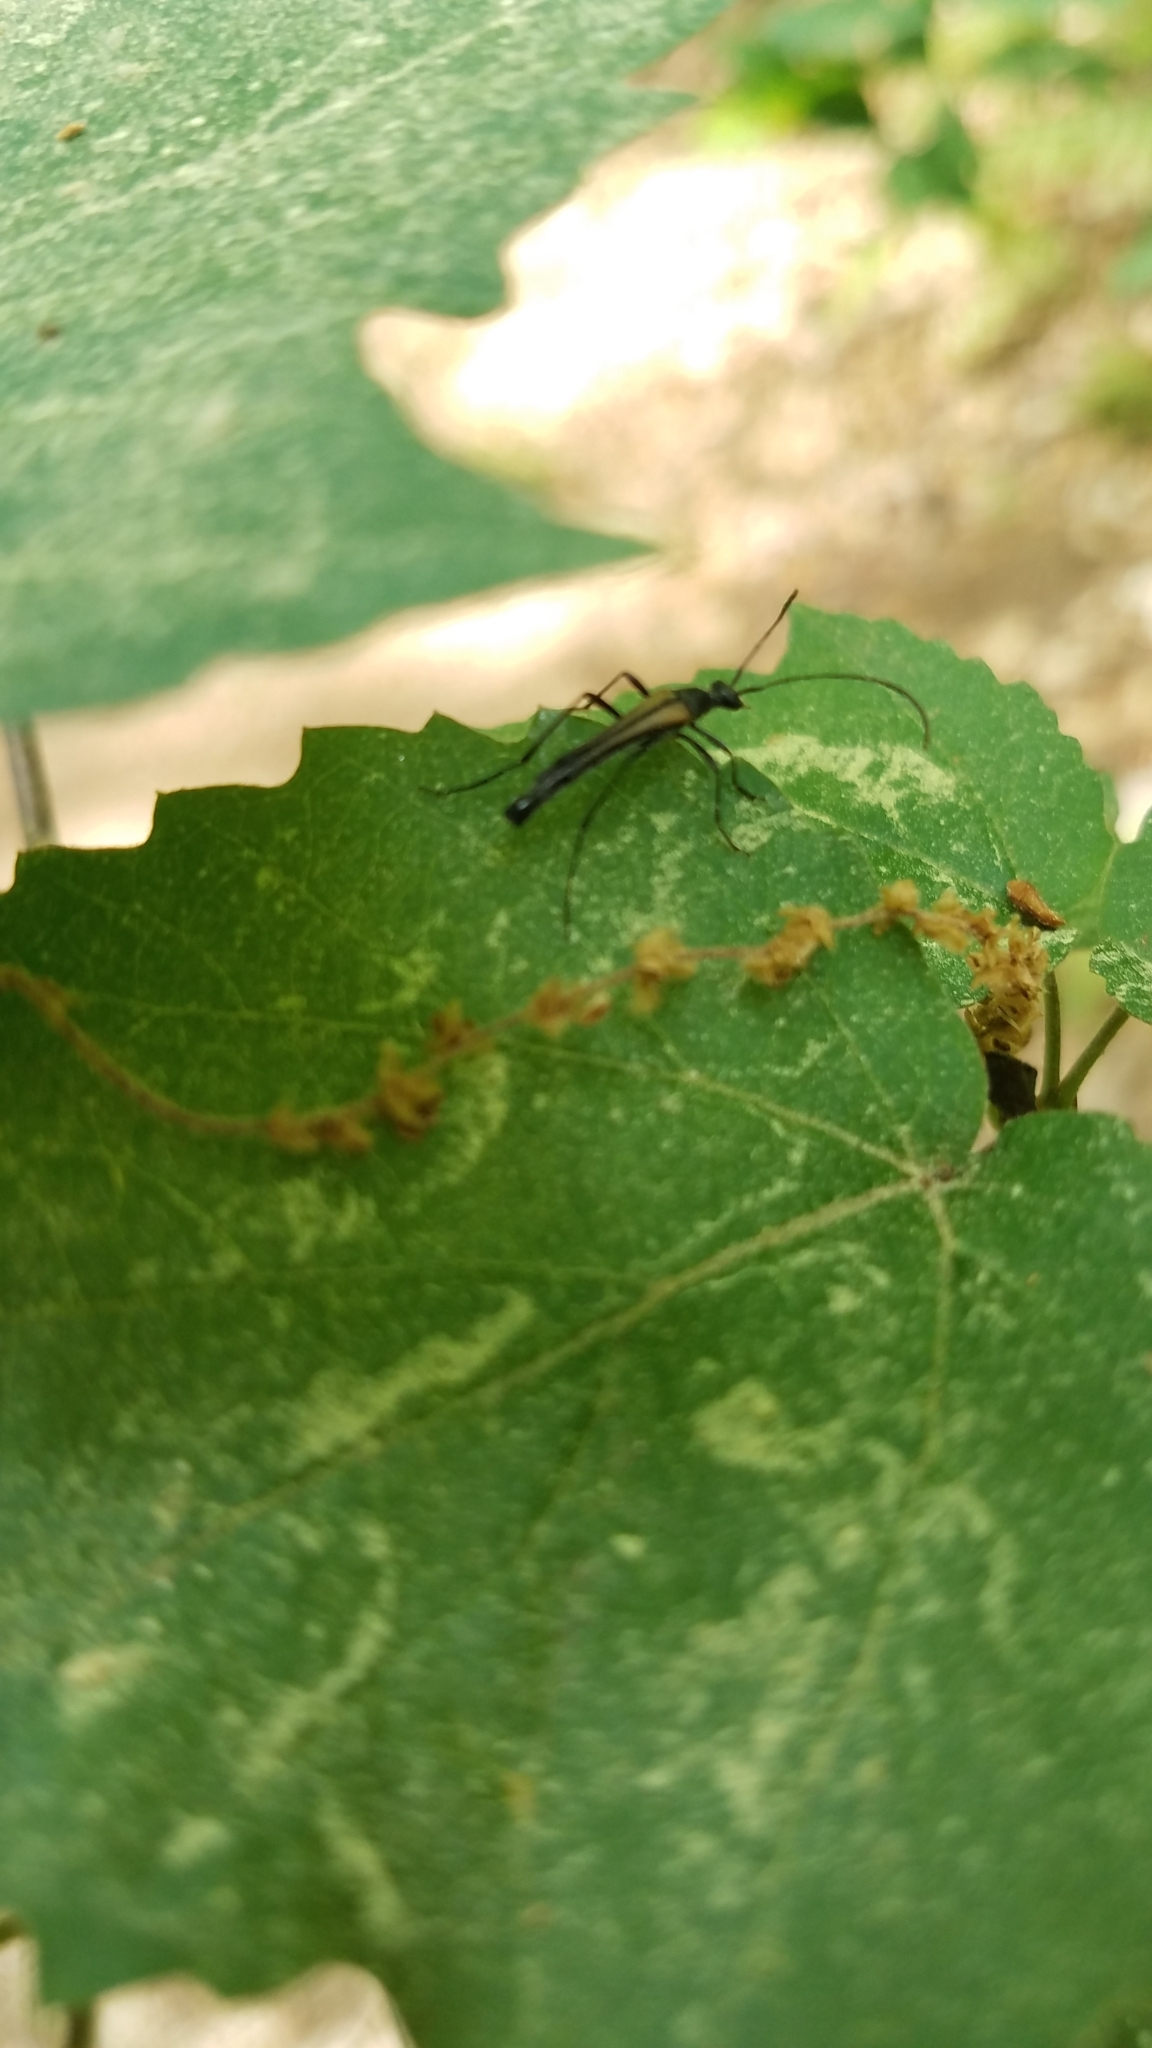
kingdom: Animalia
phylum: Arthropoda
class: Insecta
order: Coleoptera
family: Cerambycidae
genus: Strangalia
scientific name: Strangalia acuminata
